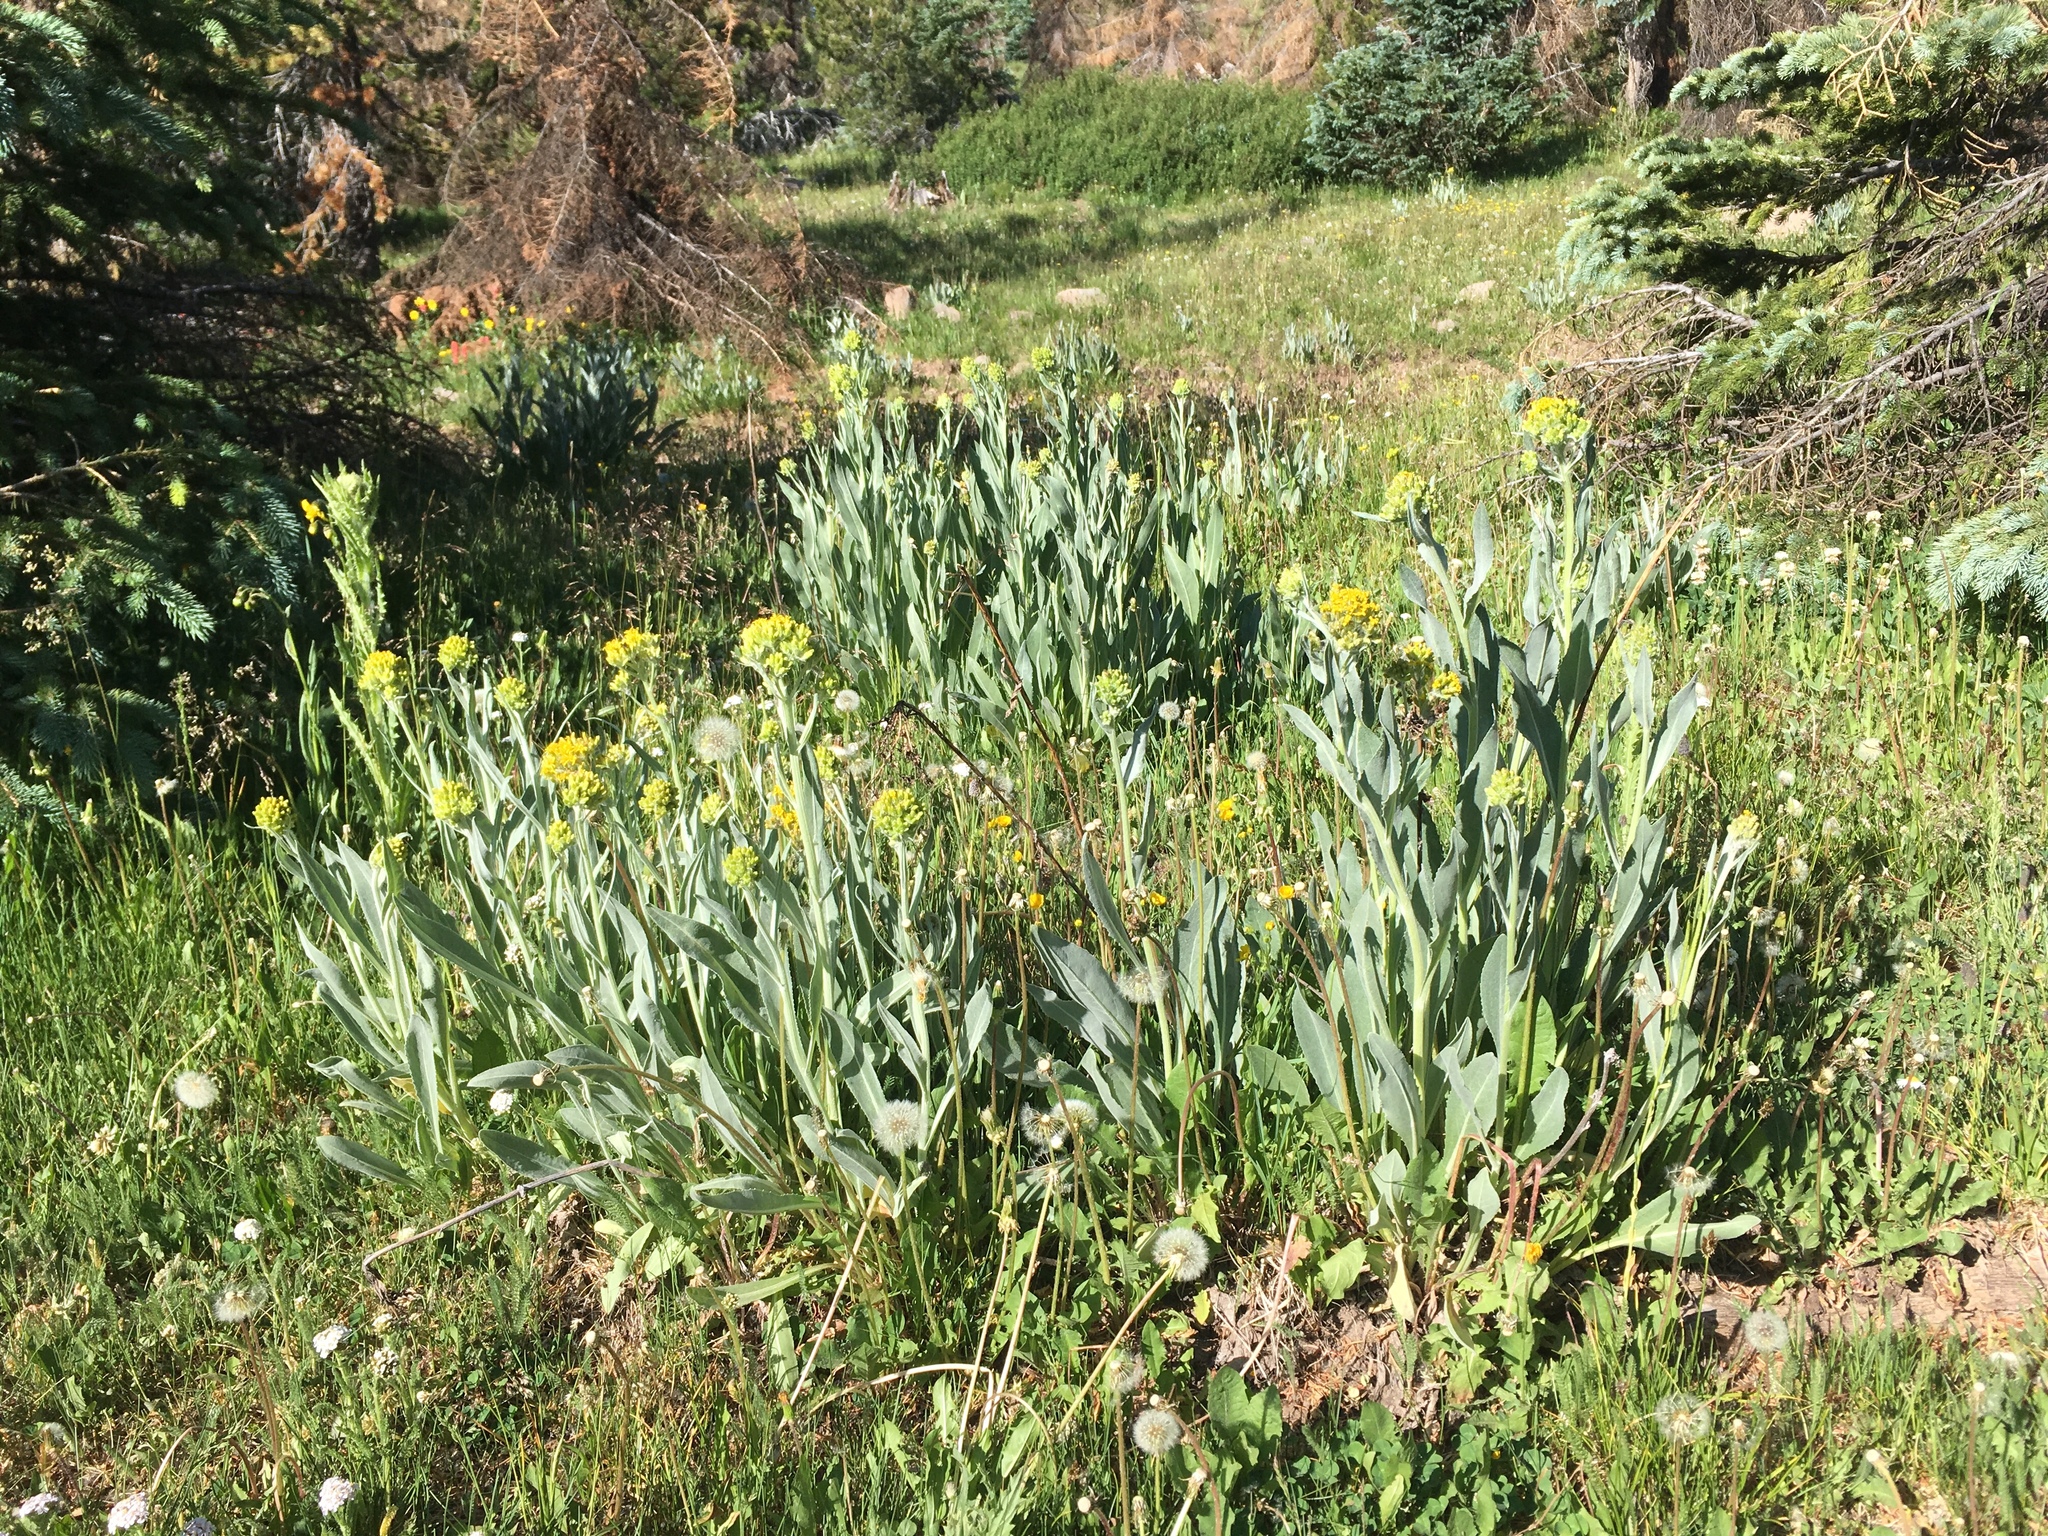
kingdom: Plantae
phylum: Tracheophyta
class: Magnoliopsida
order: Asterales
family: Asteraceae
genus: Senecio
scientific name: Senecio atratus
